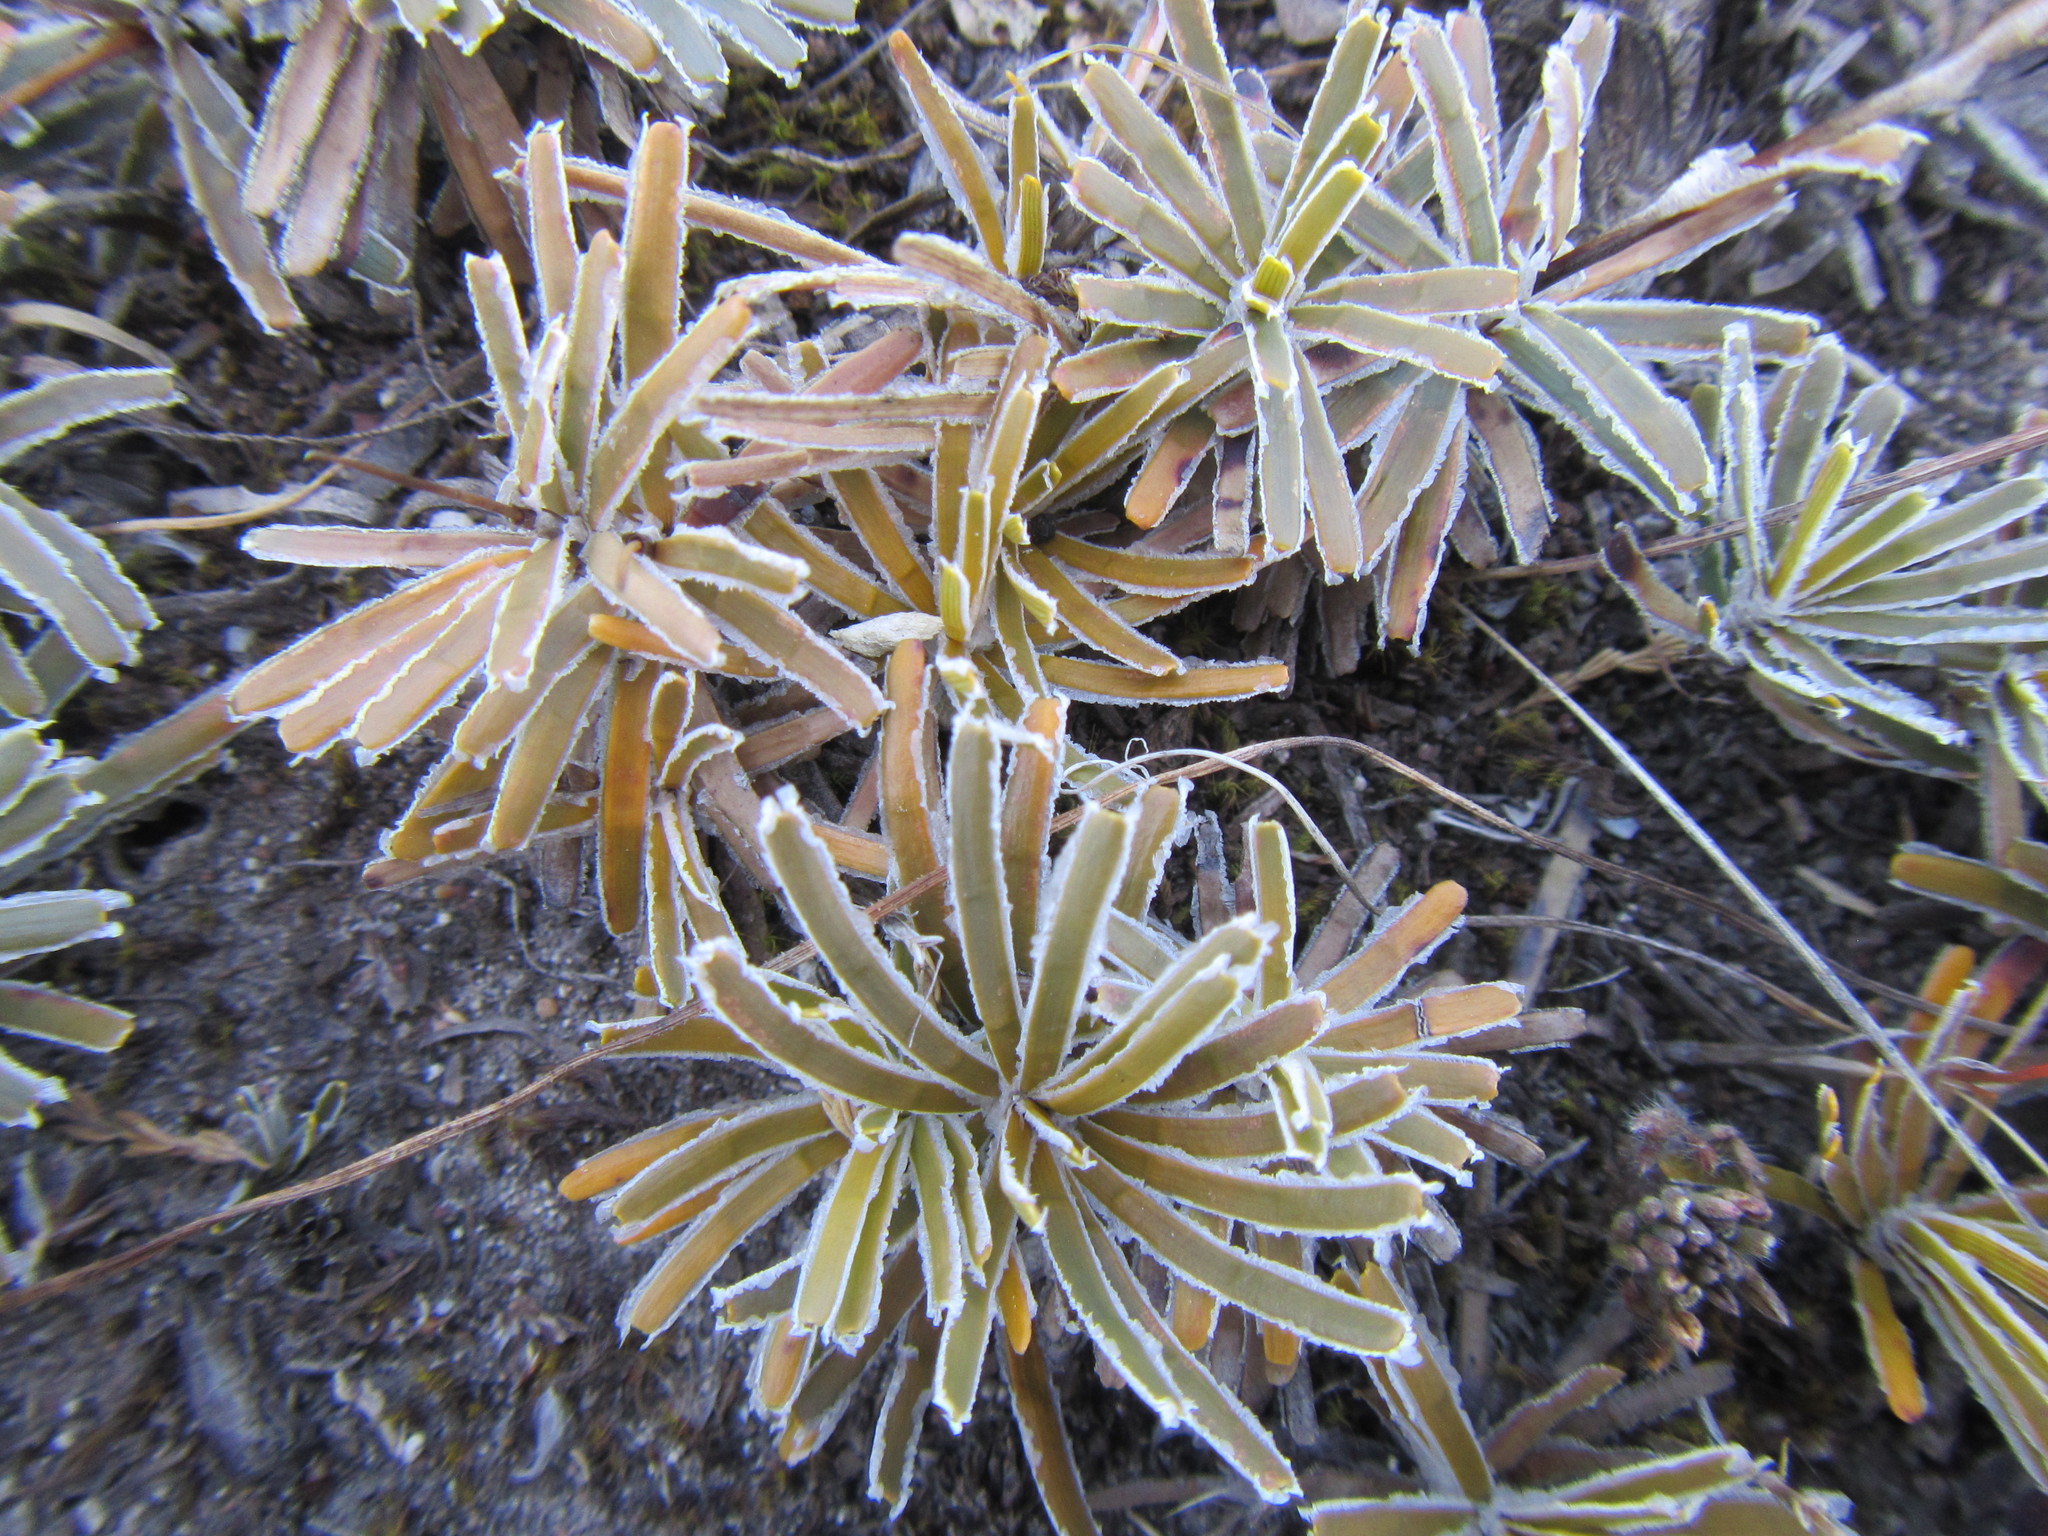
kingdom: Plantae
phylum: Tracheophyta
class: Liliopsida
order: Poales
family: Cyperaceae
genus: Ficinia
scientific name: Ficinia truncata
